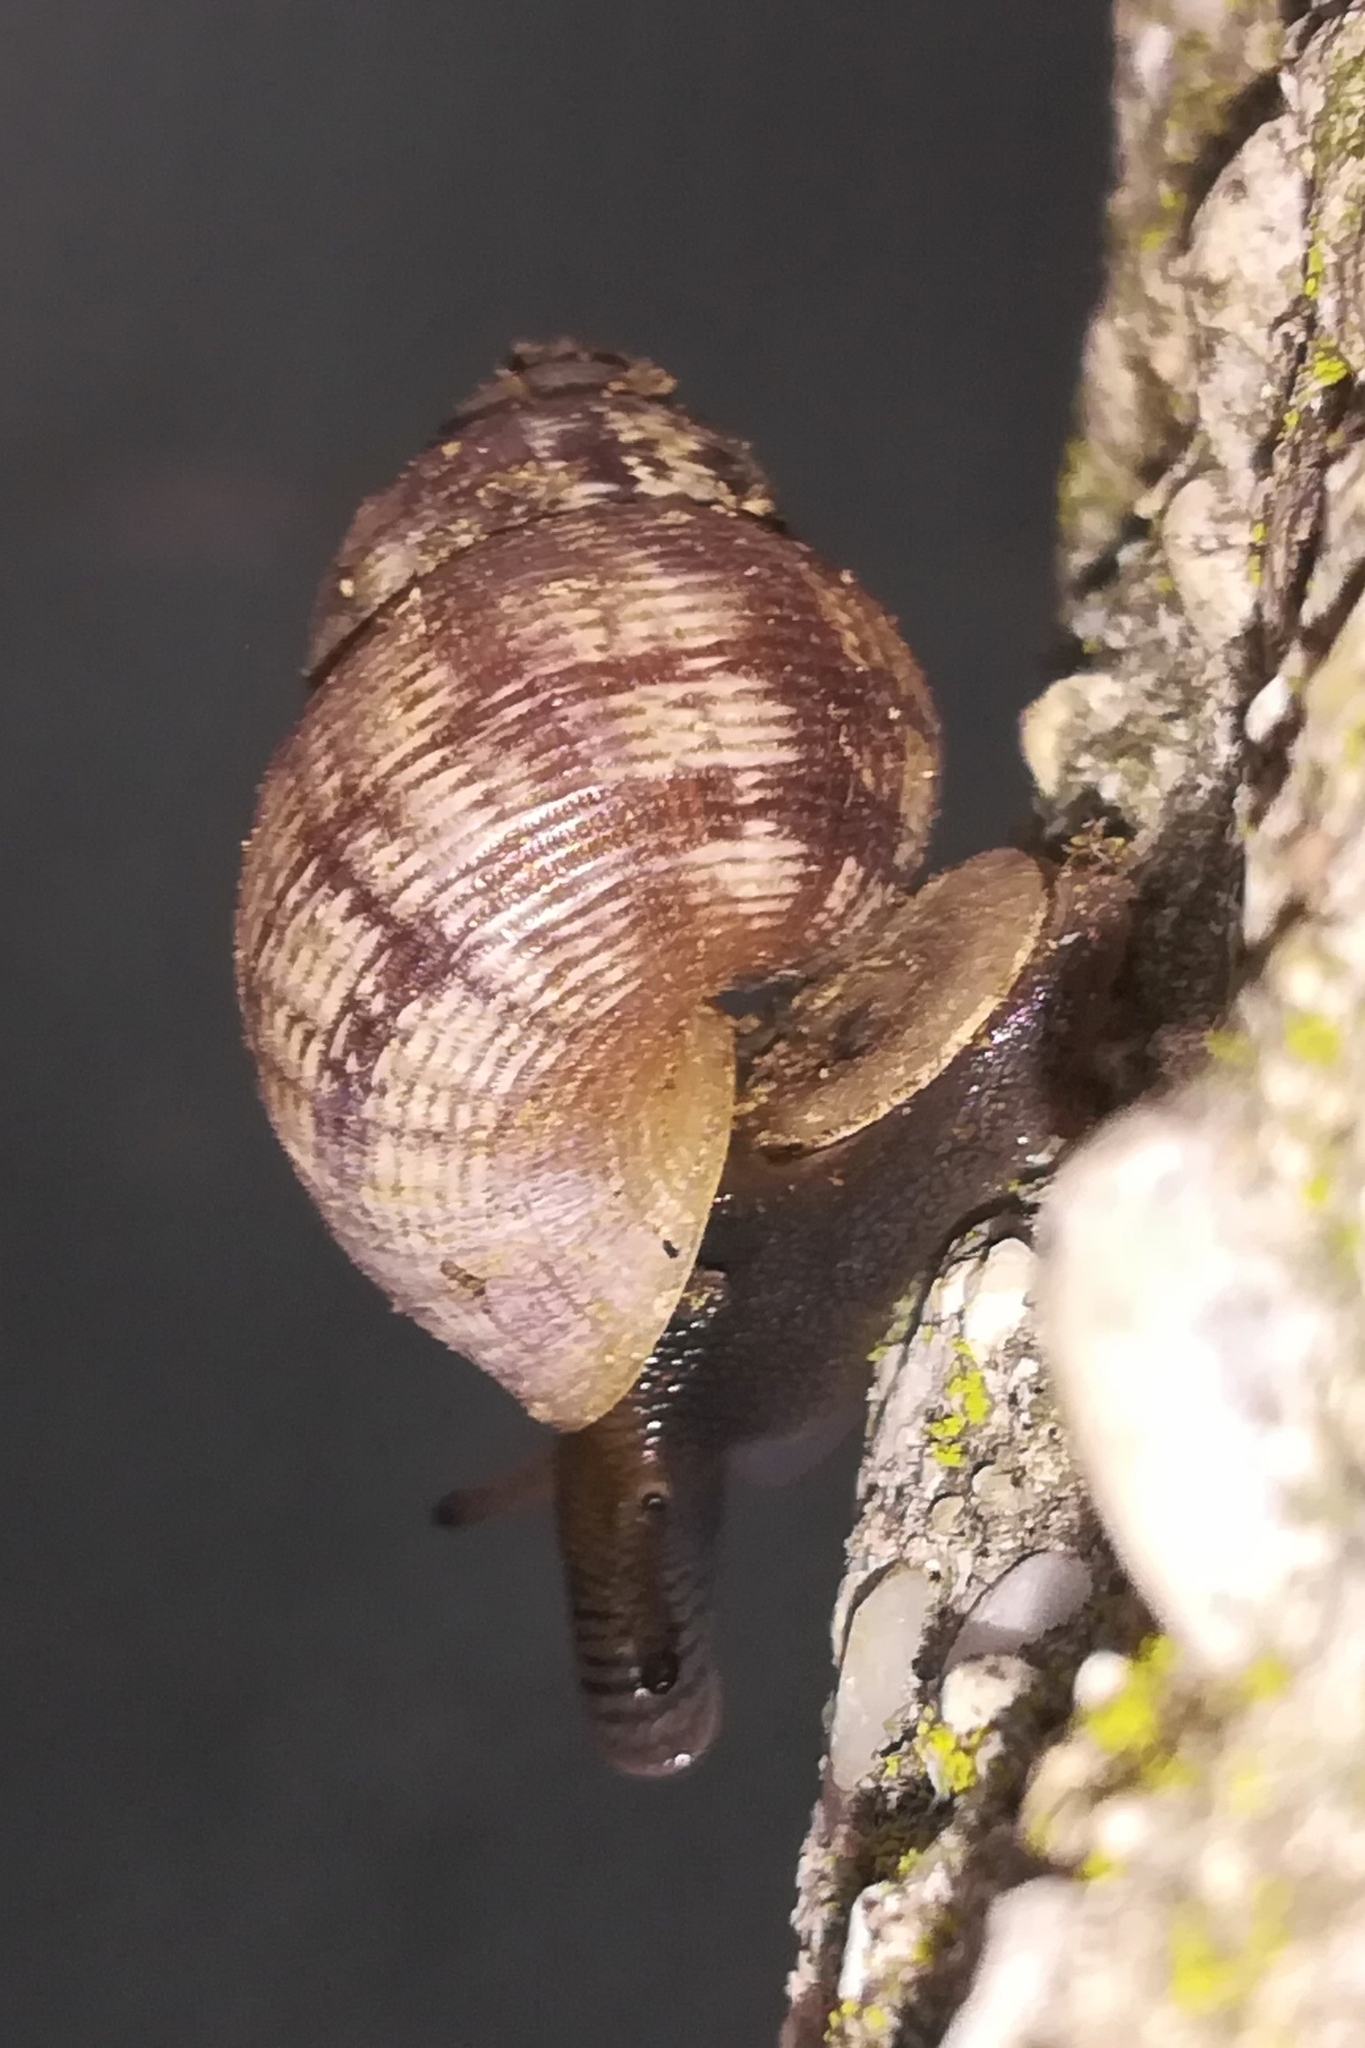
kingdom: Animalia
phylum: Mollusca
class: Gastropoda
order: Littorinimorpha
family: Pomatiidae
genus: Pomatias
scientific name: Pomatias elegans
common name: Red-mouthed snail
